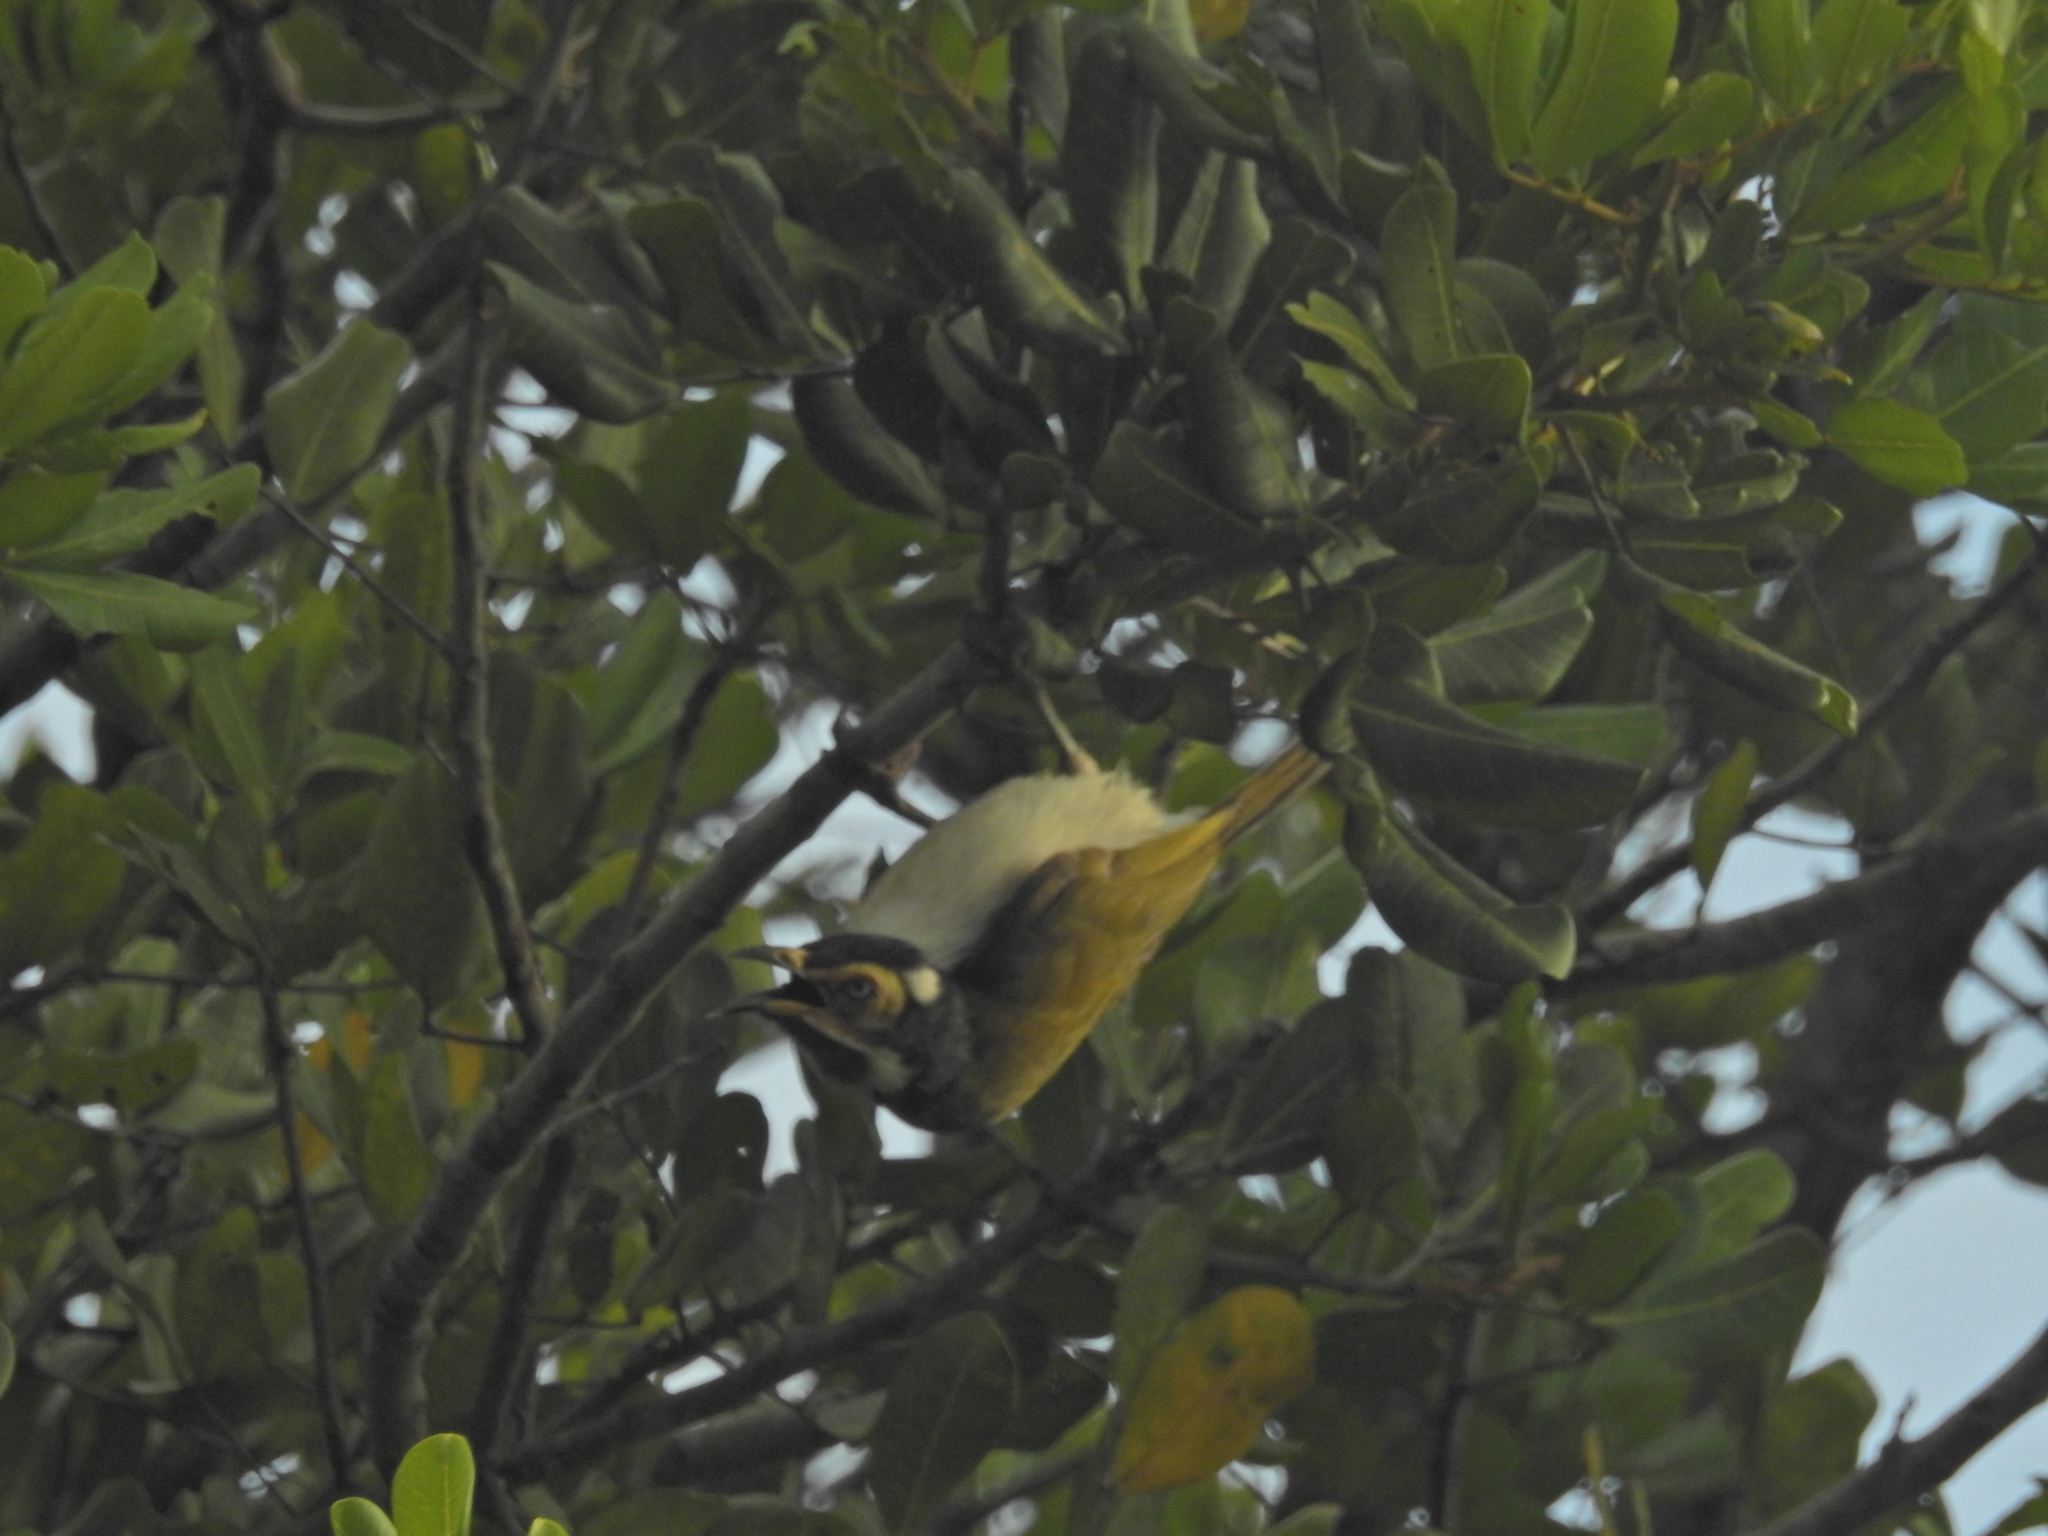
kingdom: Animalia
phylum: Chordata
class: Aves
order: Passeriformes
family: Meliphagidae
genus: Entomyzon
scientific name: Entomyzon cyanotis
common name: Blue-faced honeyeater
